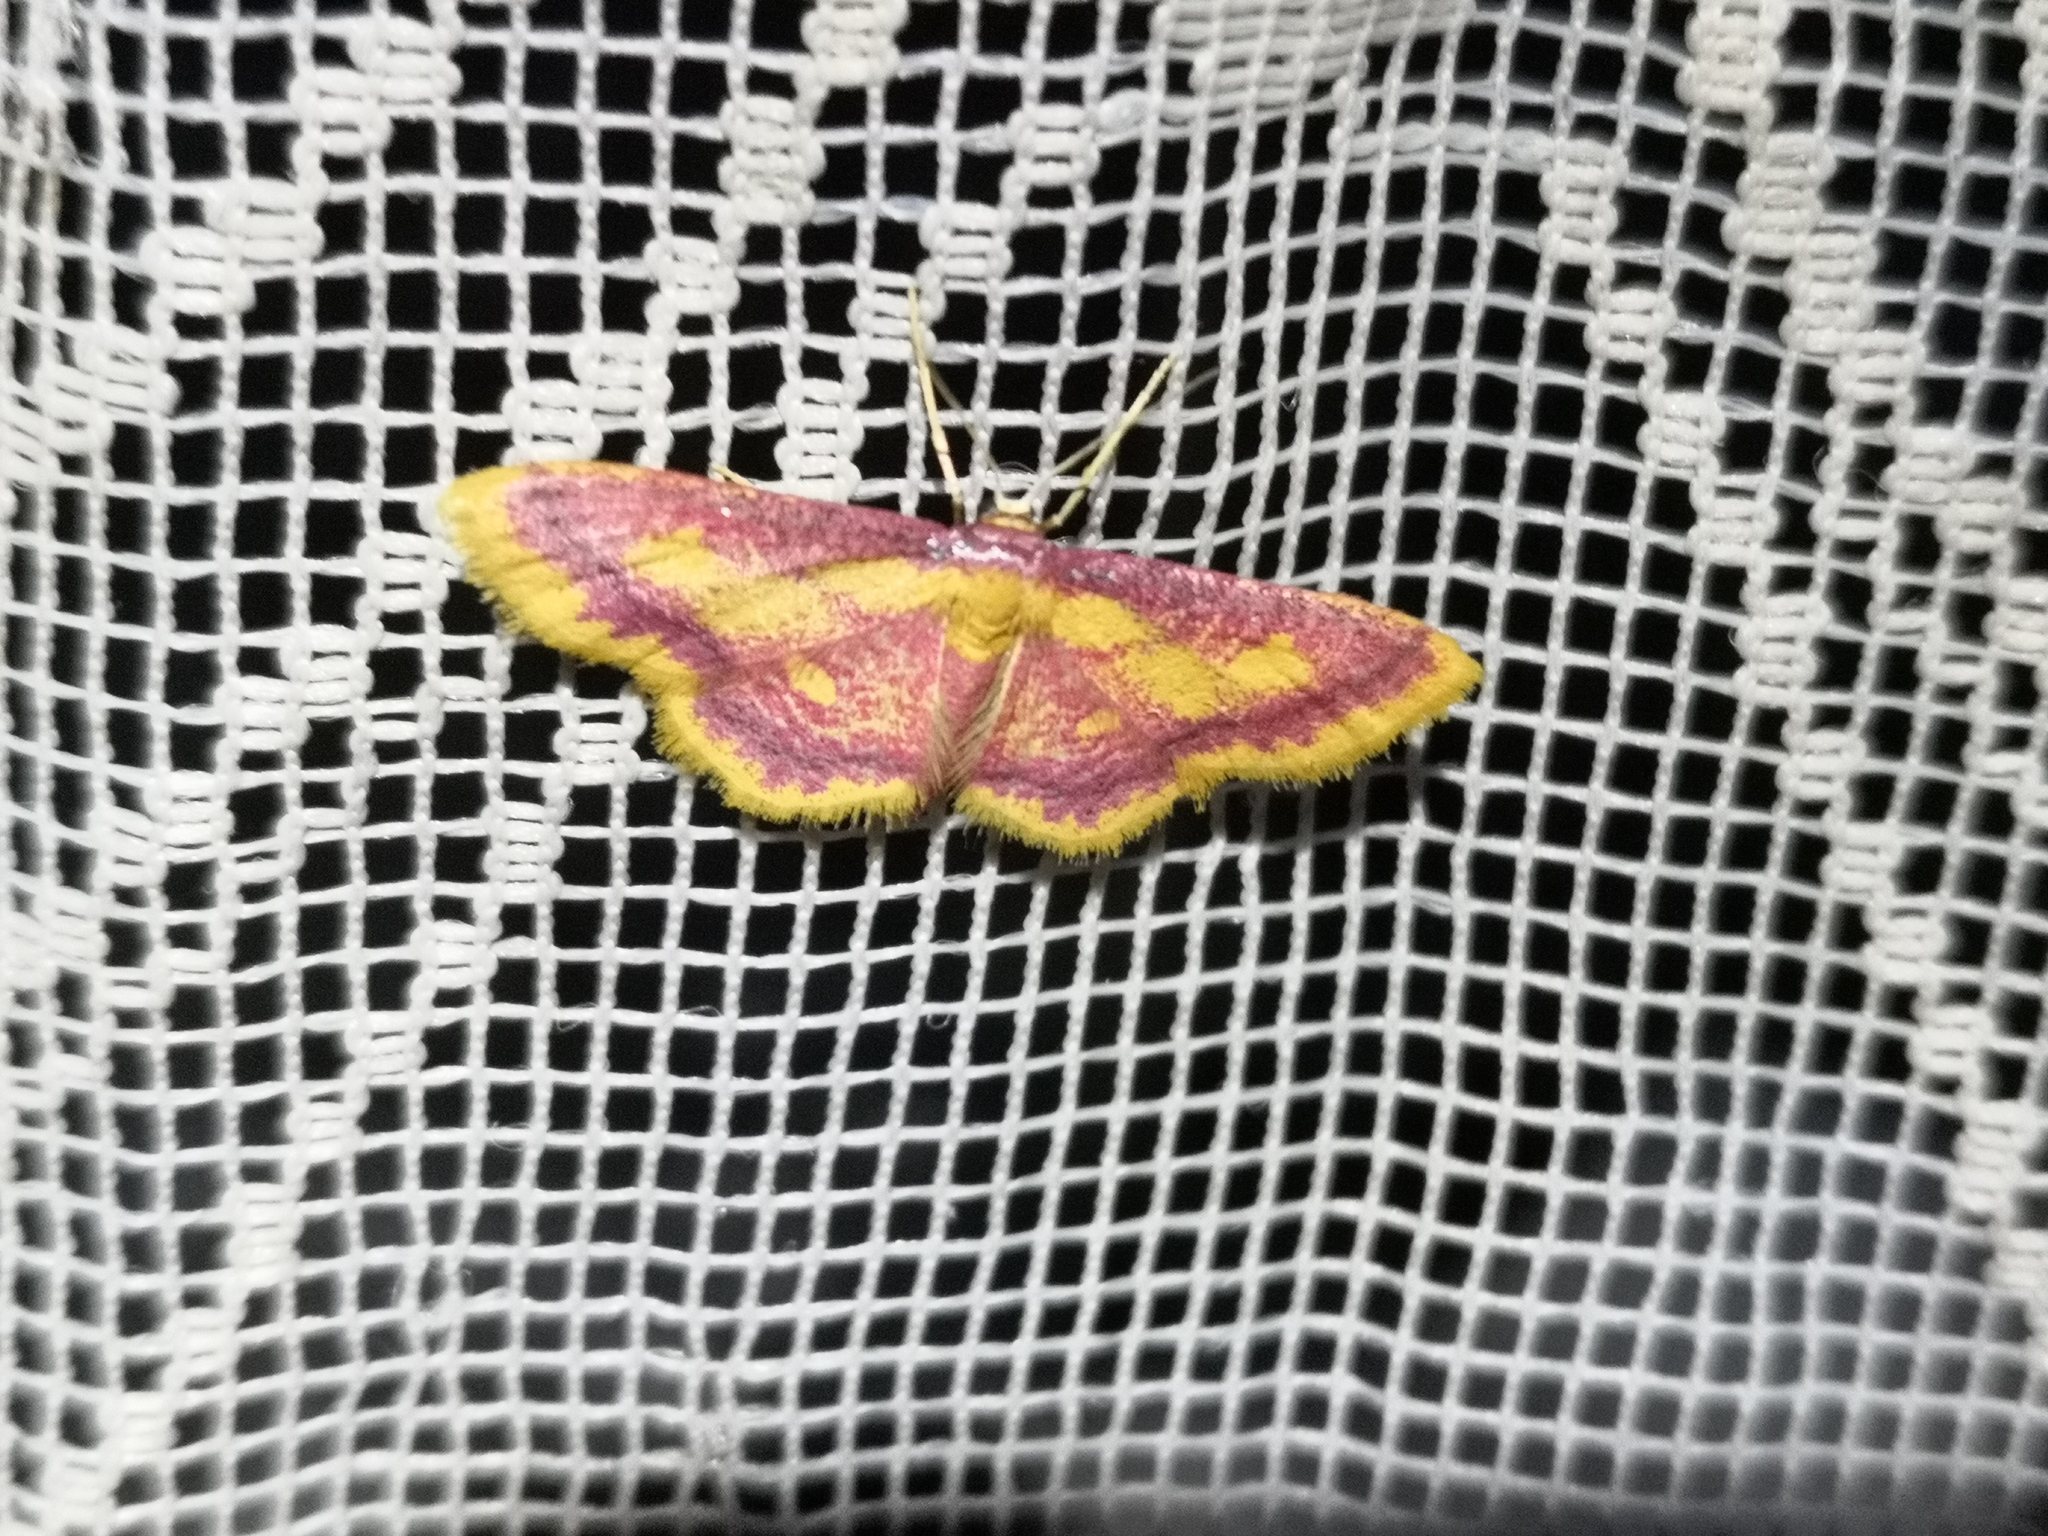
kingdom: Animalia
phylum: Arthropoda
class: Insecta
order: Lepidoptera
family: Geometridae
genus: Idaea
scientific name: Idaea muricata
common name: Purple-bordered gold
